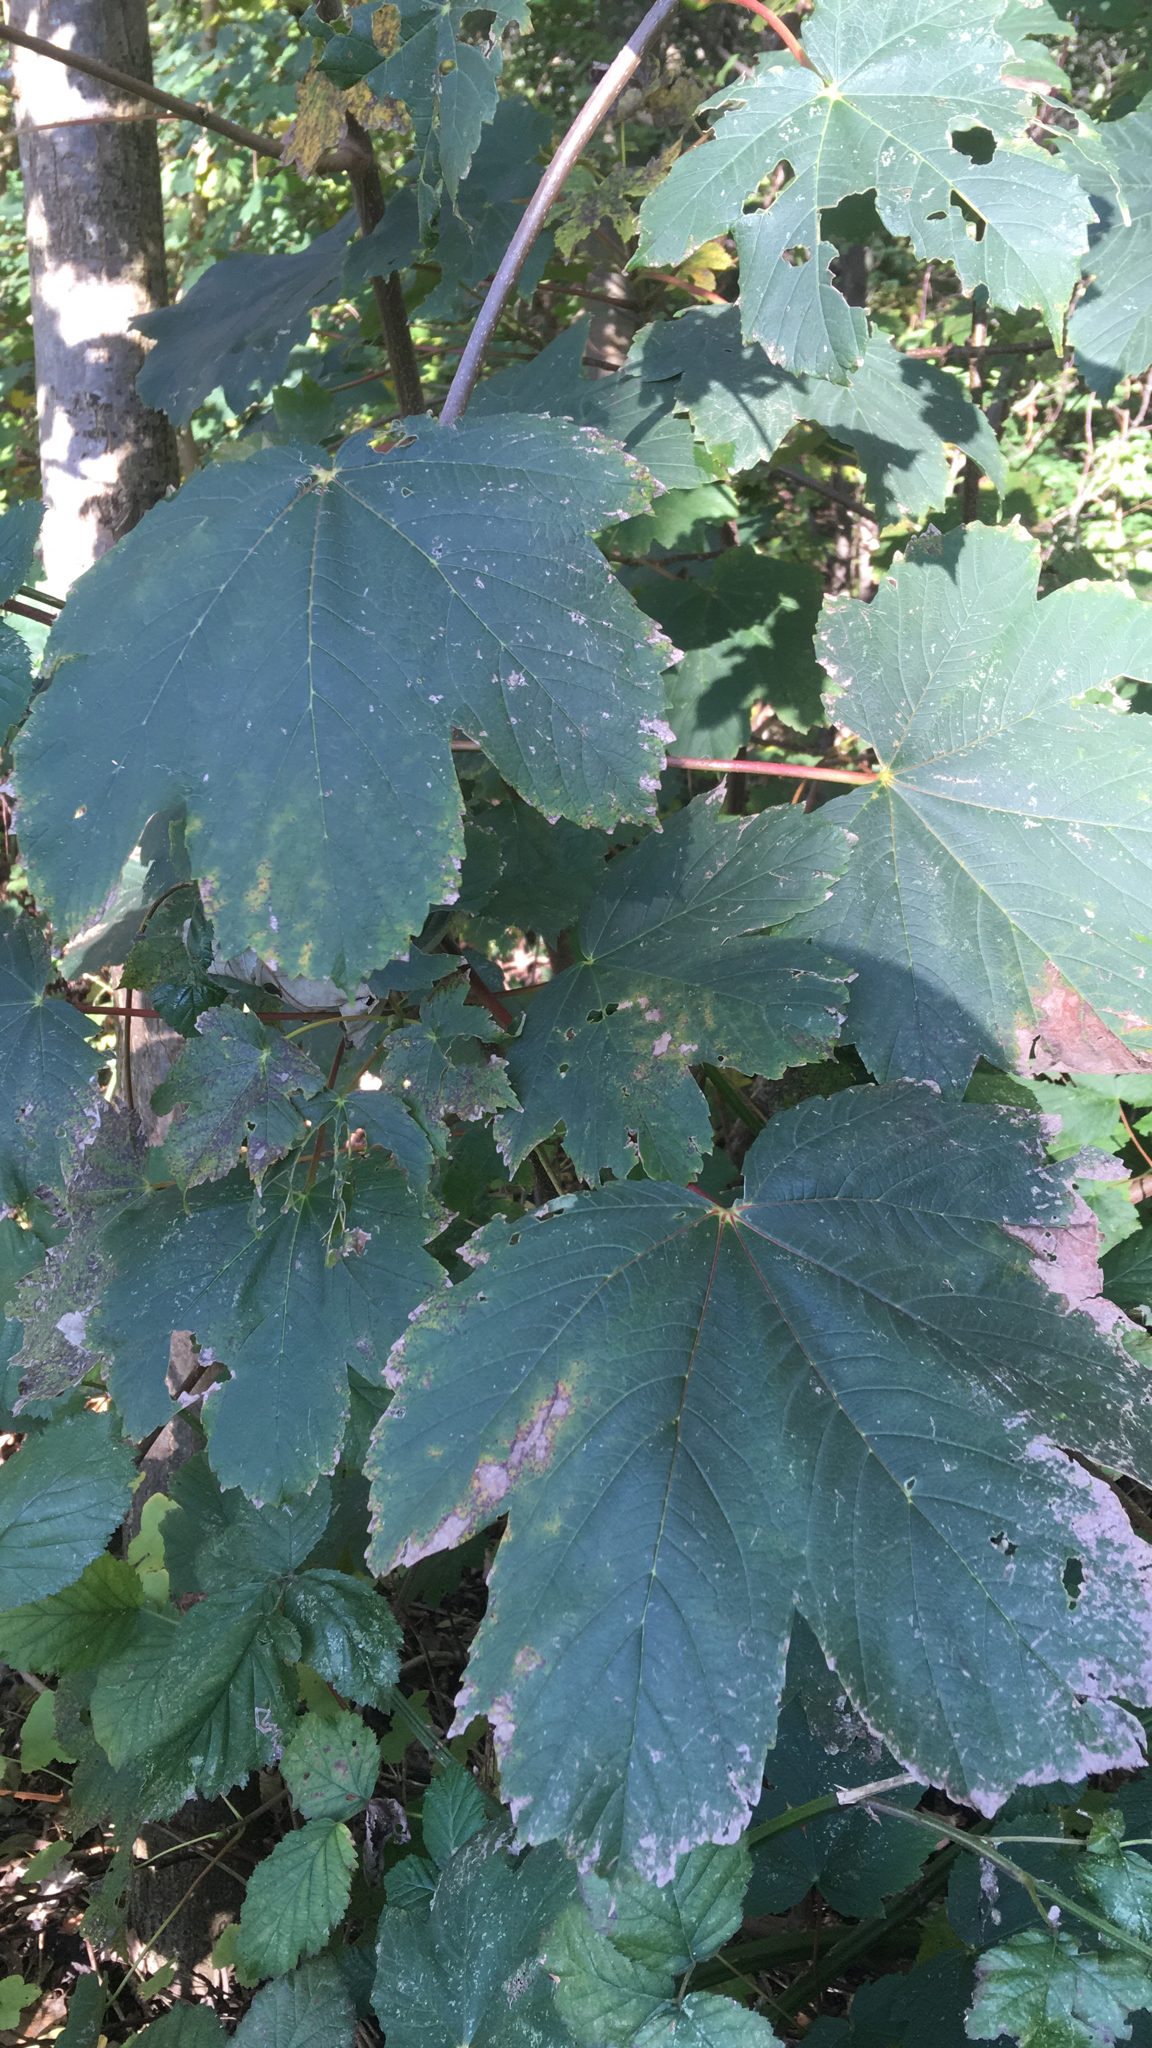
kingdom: Plantae
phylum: Tracheophyta
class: Magnoliopsida
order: Sapindales
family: Sapindaceae
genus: Acer
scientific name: Acer pseudoplatanus
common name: Sycamore
